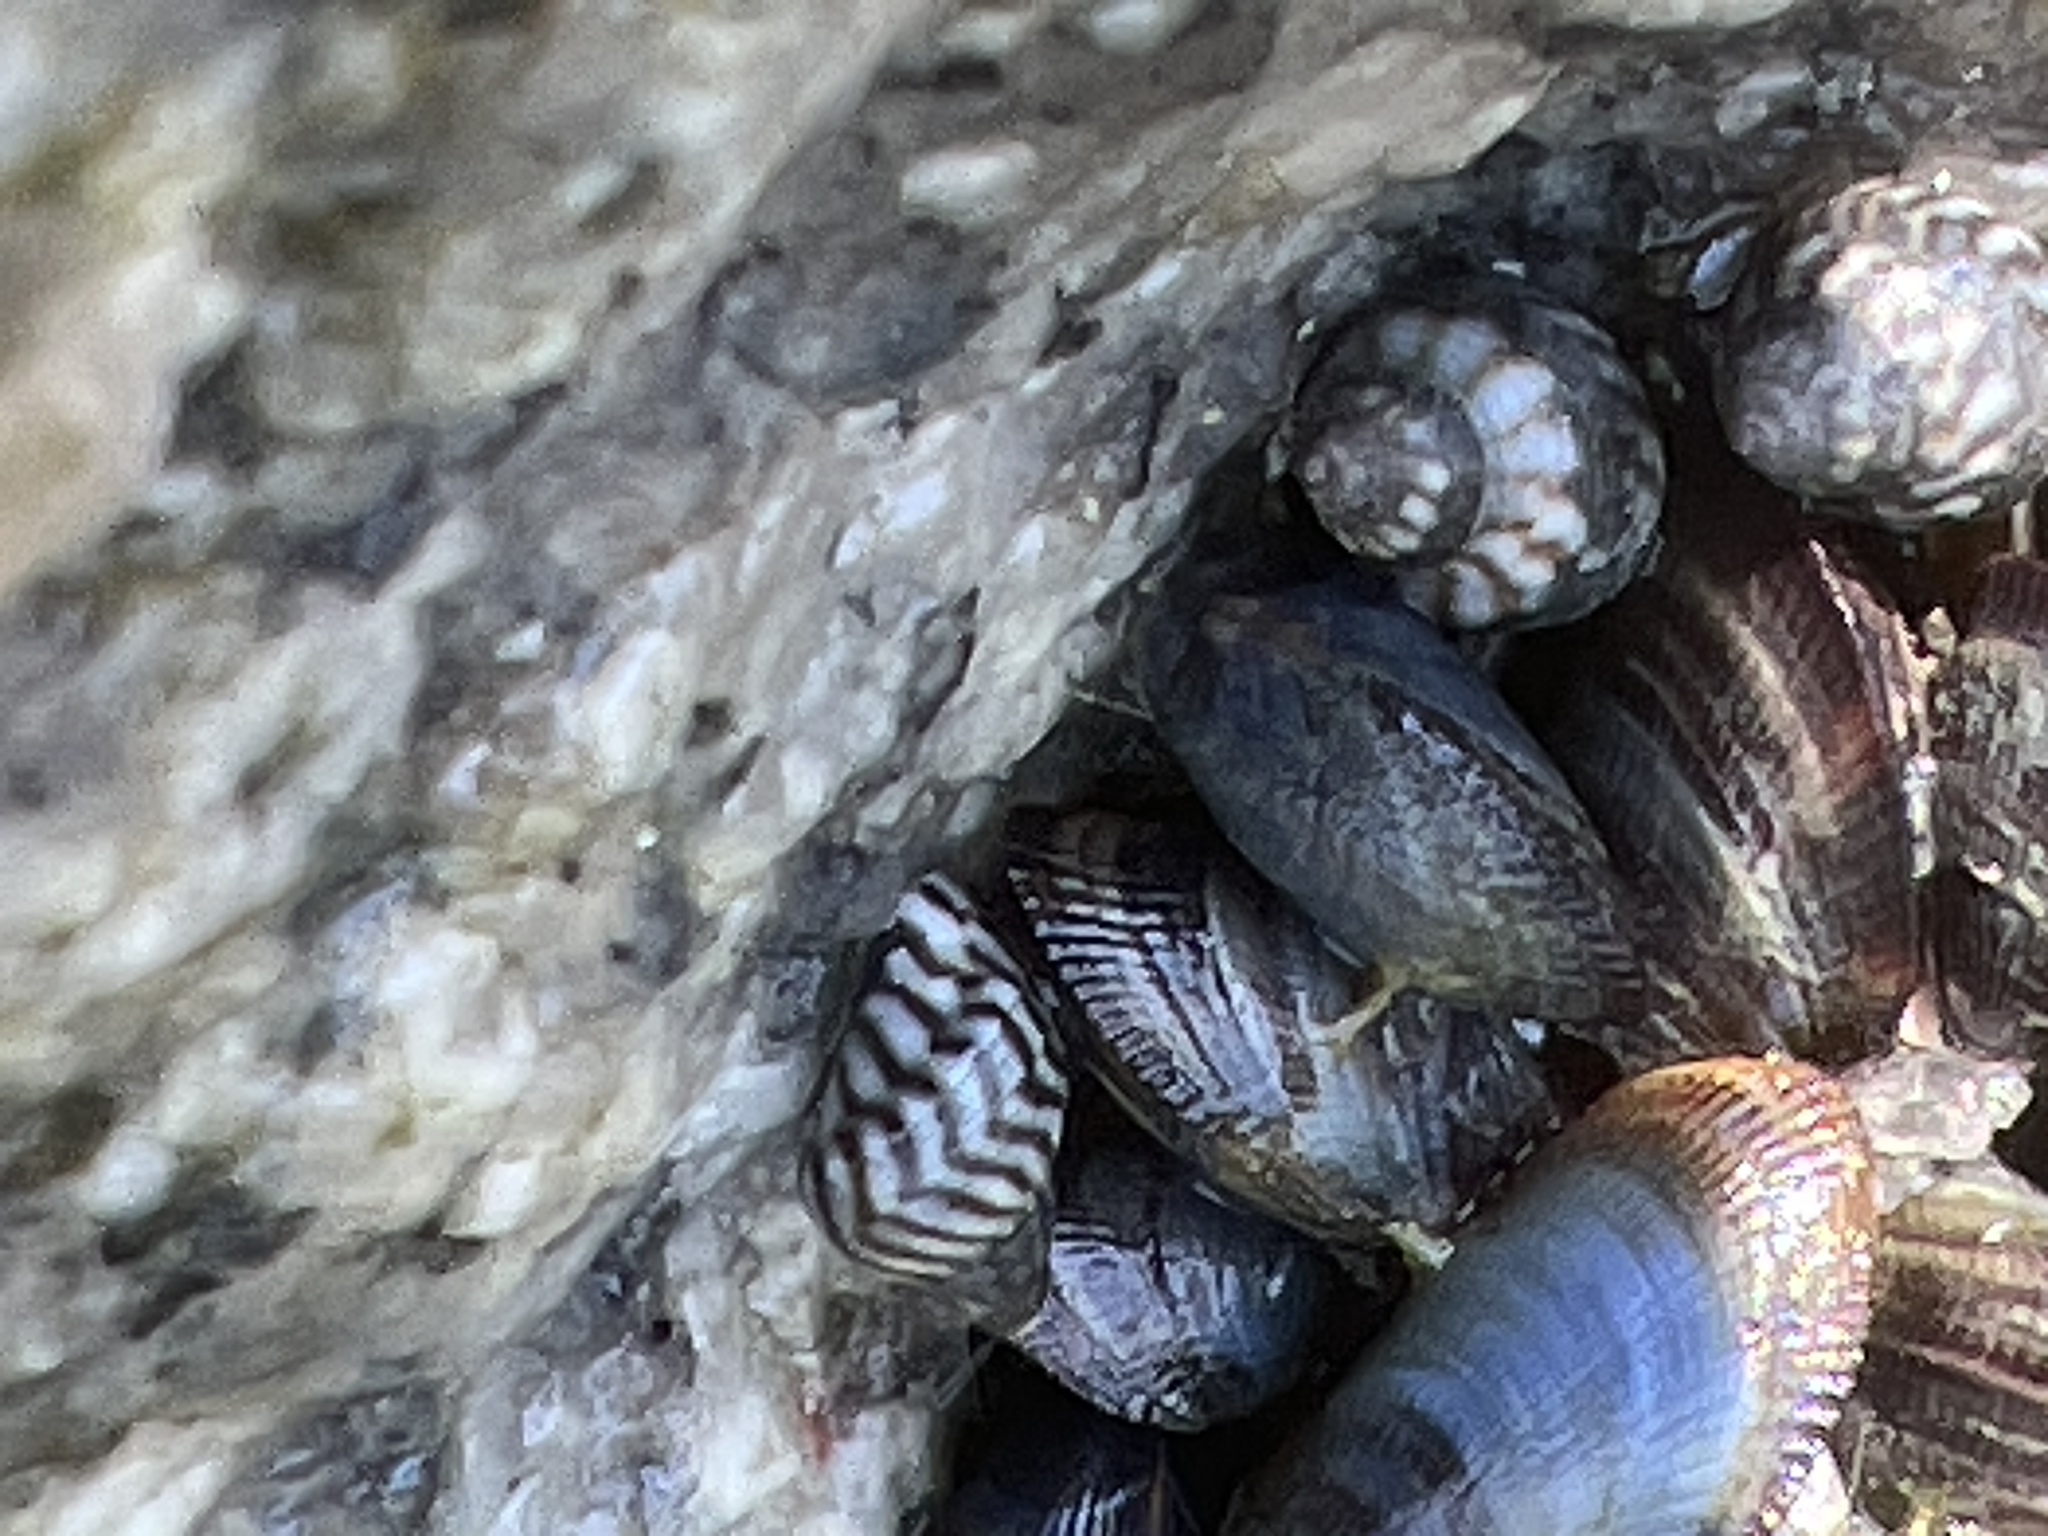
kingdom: Animalia
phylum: Mollusca
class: Gastropoda
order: Littorinimorpha
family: Littorinidae
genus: Echinolittorina
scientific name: Echinolittorina placida
